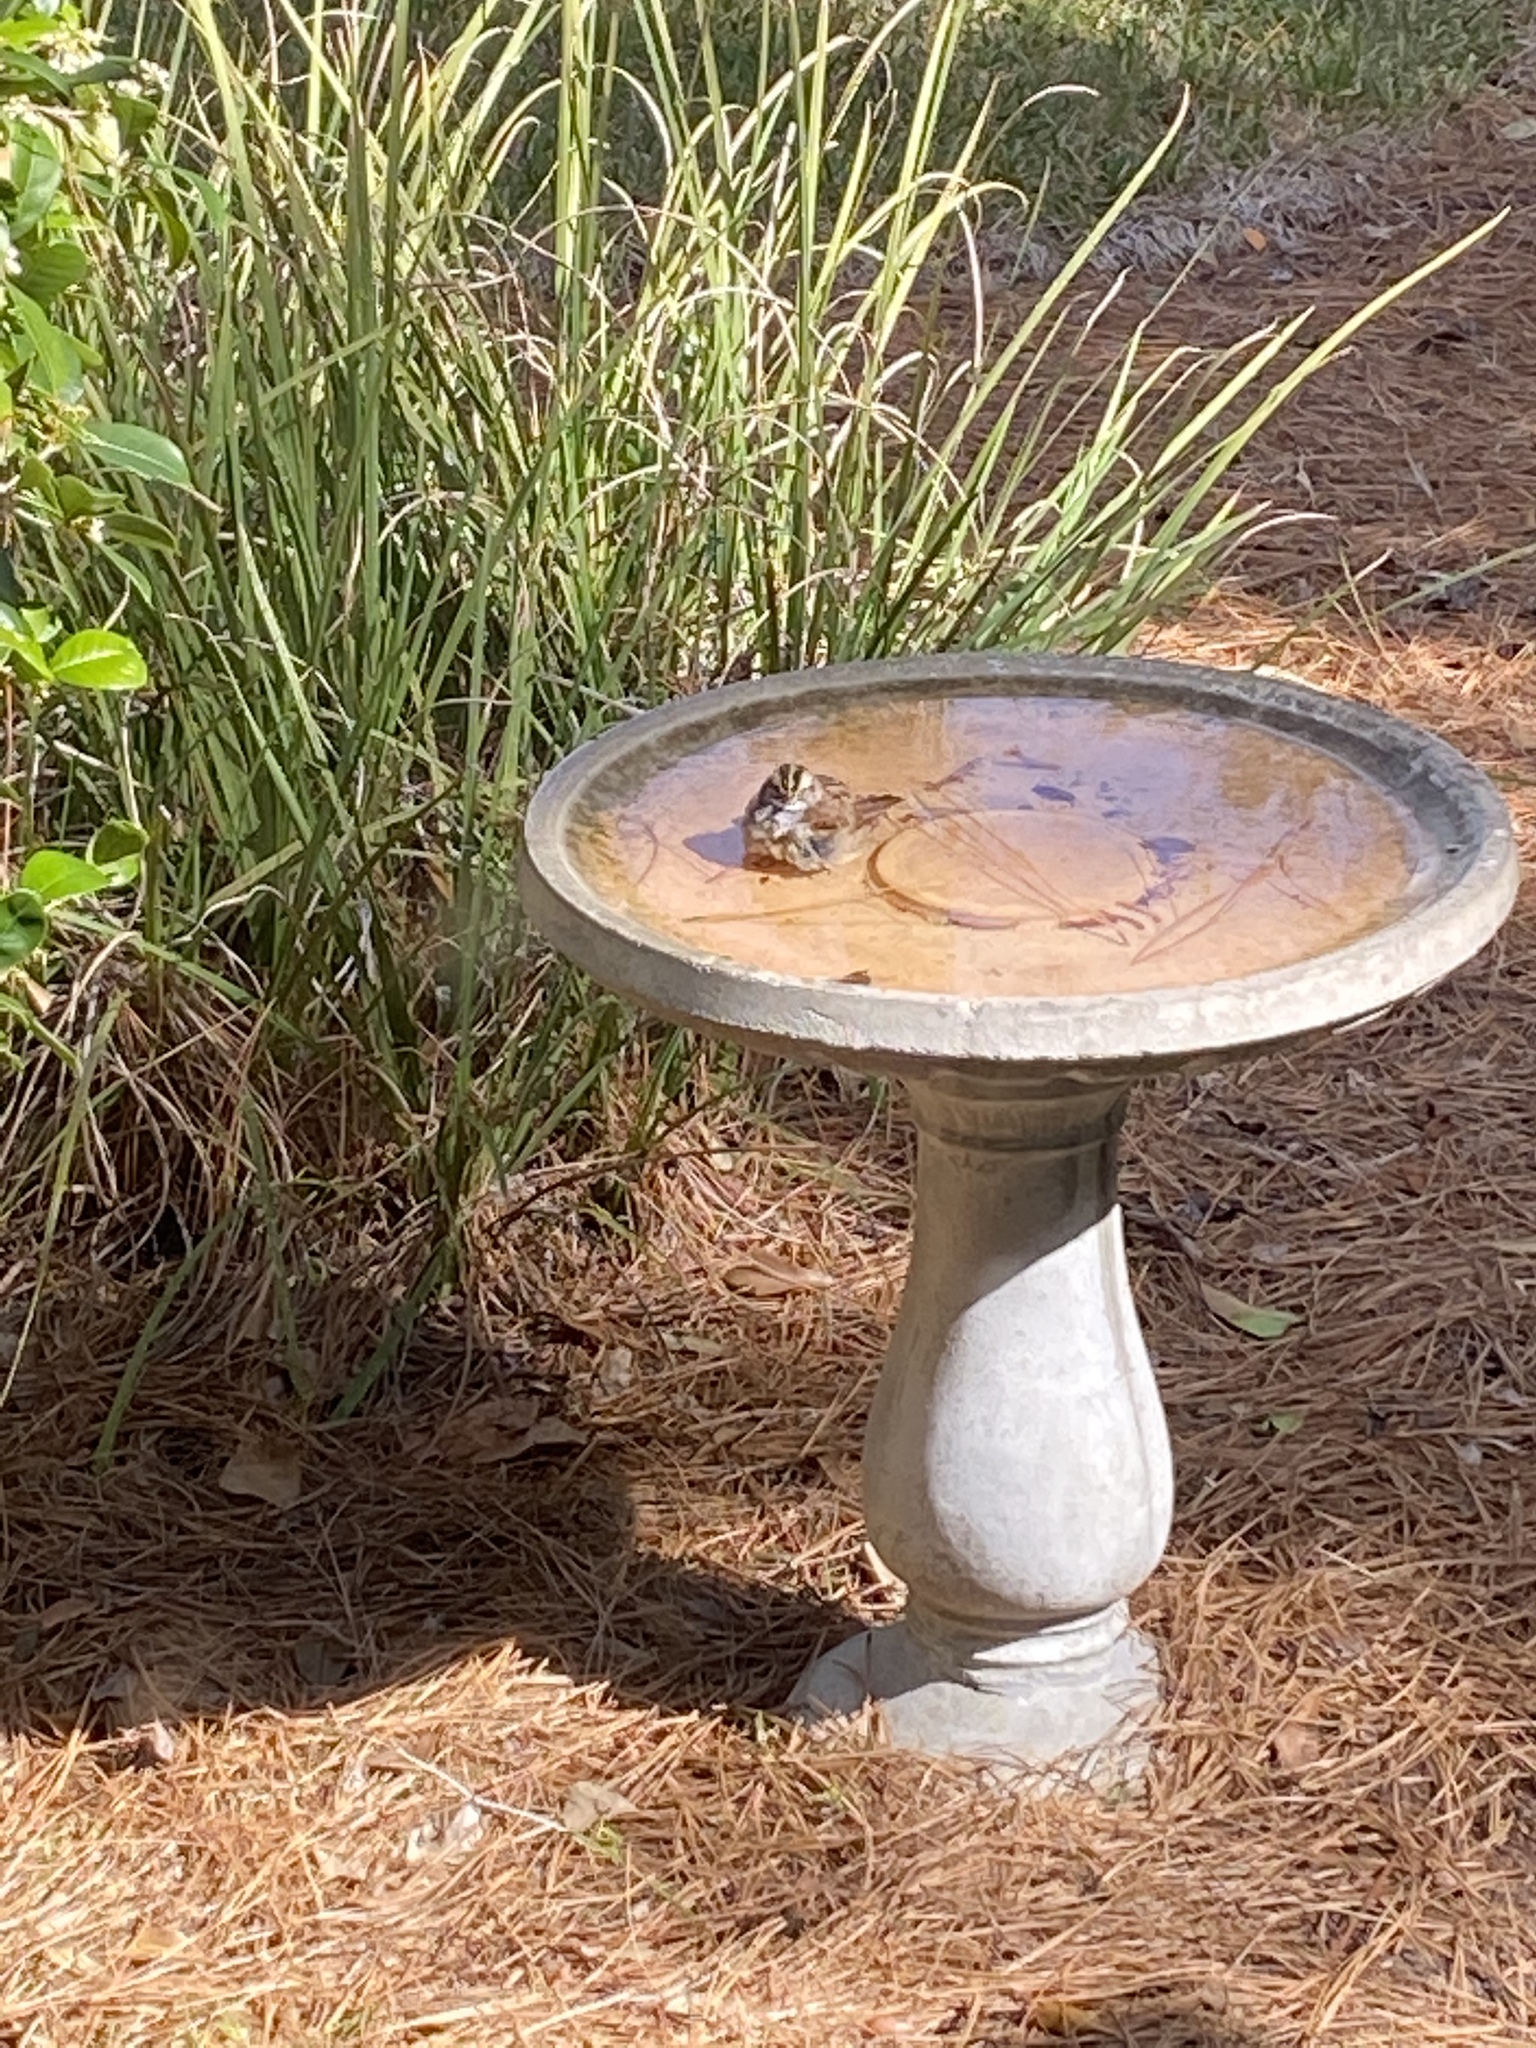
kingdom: Animalia
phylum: Chordata
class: Aves
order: Passeriformes
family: Passerellidae
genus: Zonotrichia
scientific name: Zonotrichia albicollis
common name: White-throated sparrow
